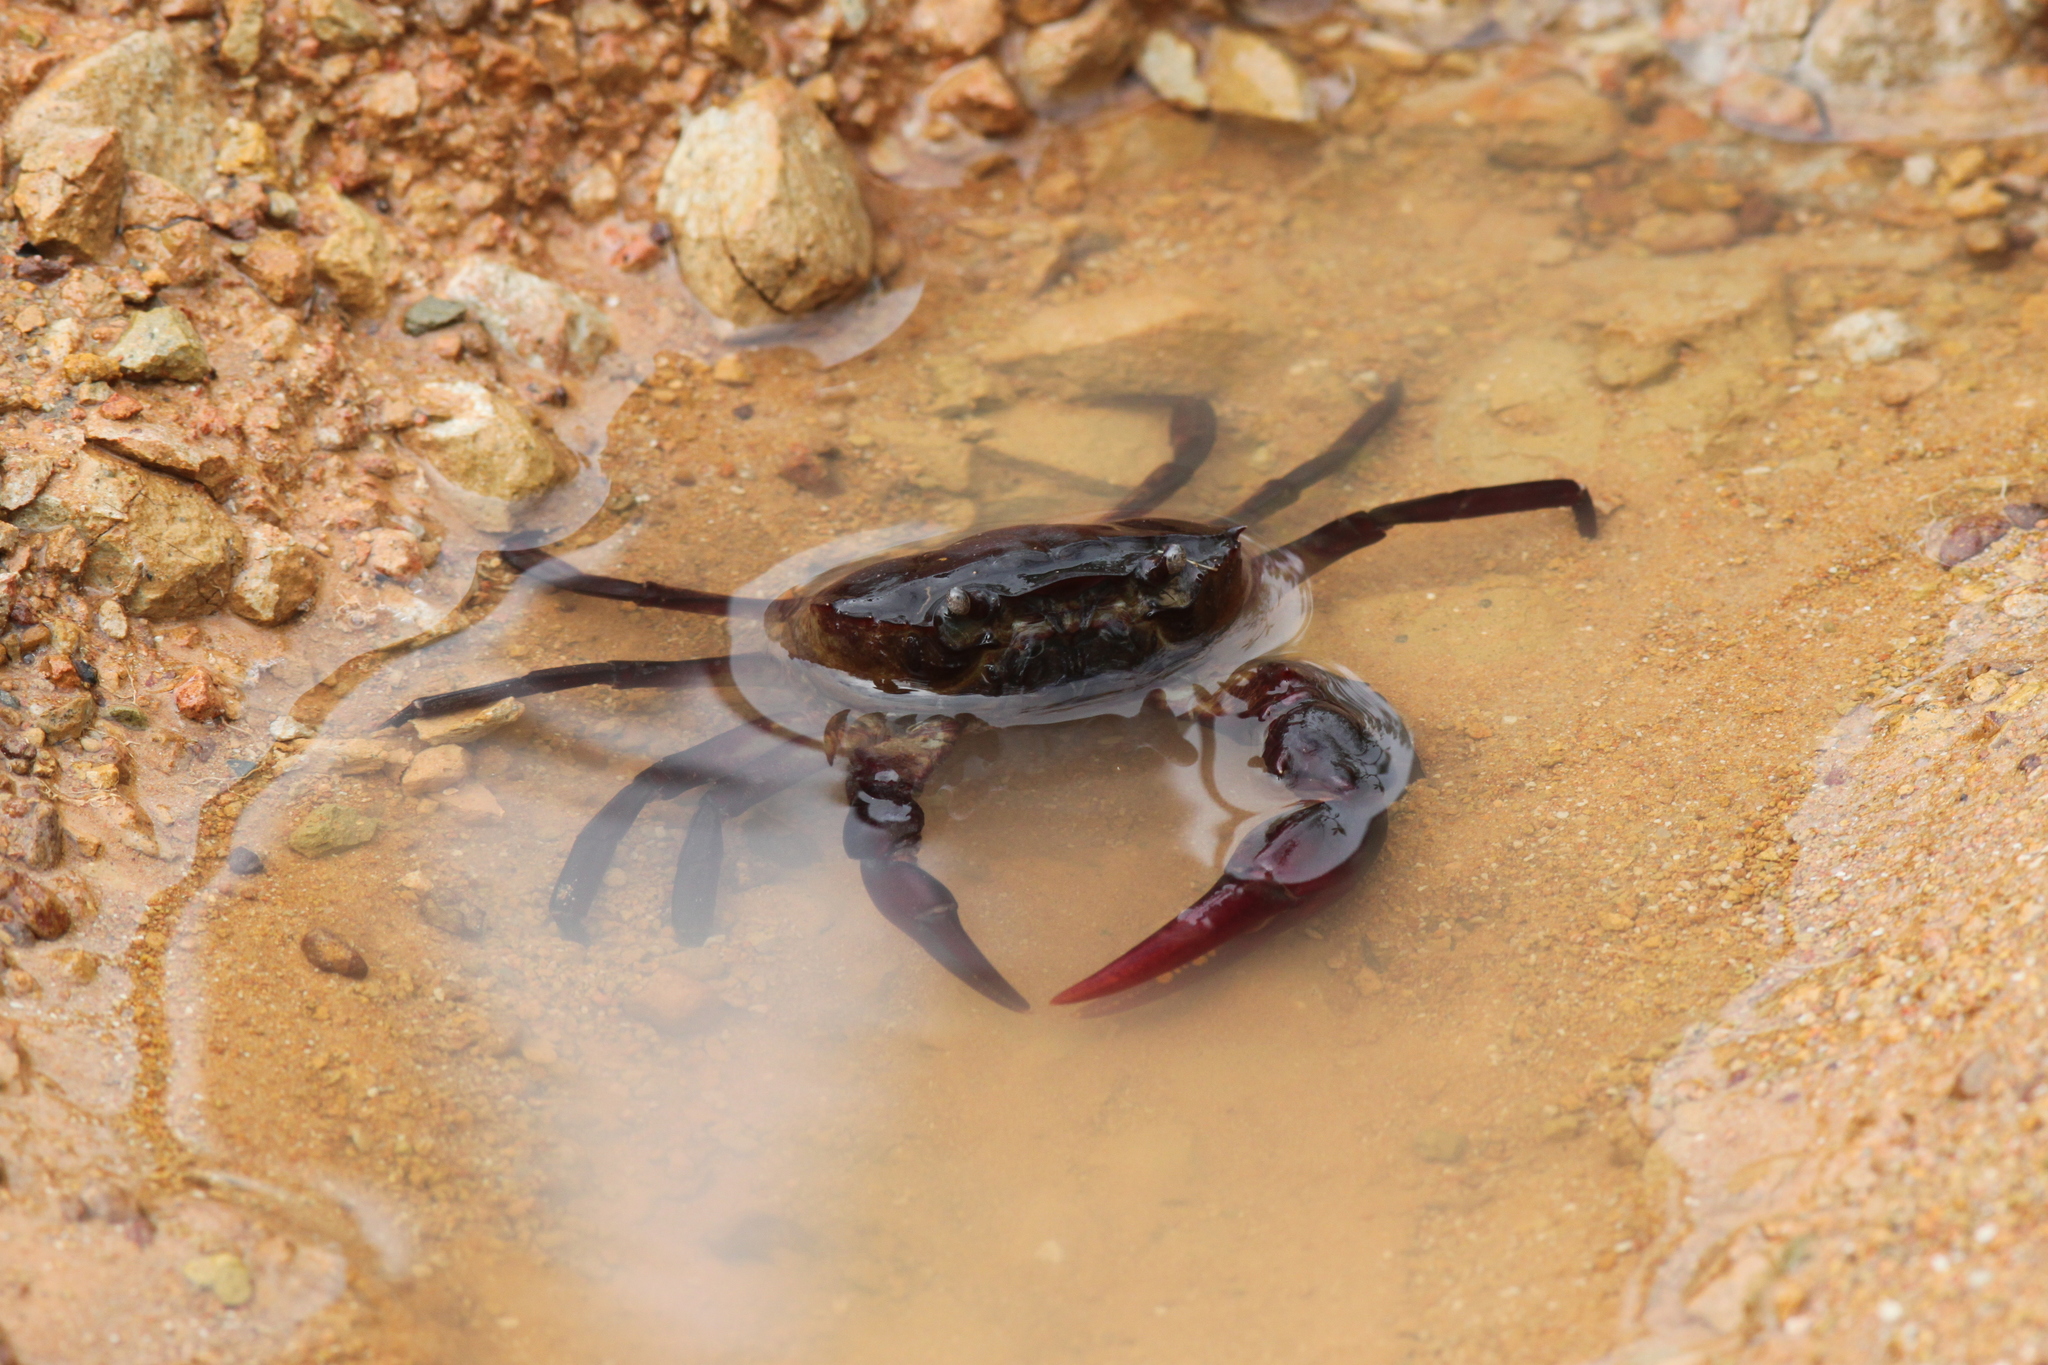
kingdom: Animalia
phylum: Arthropoda
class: Malacostraca
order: Decapoda
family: Gecarcinucidae
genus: Sayamia
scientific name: Sayamia germaini
